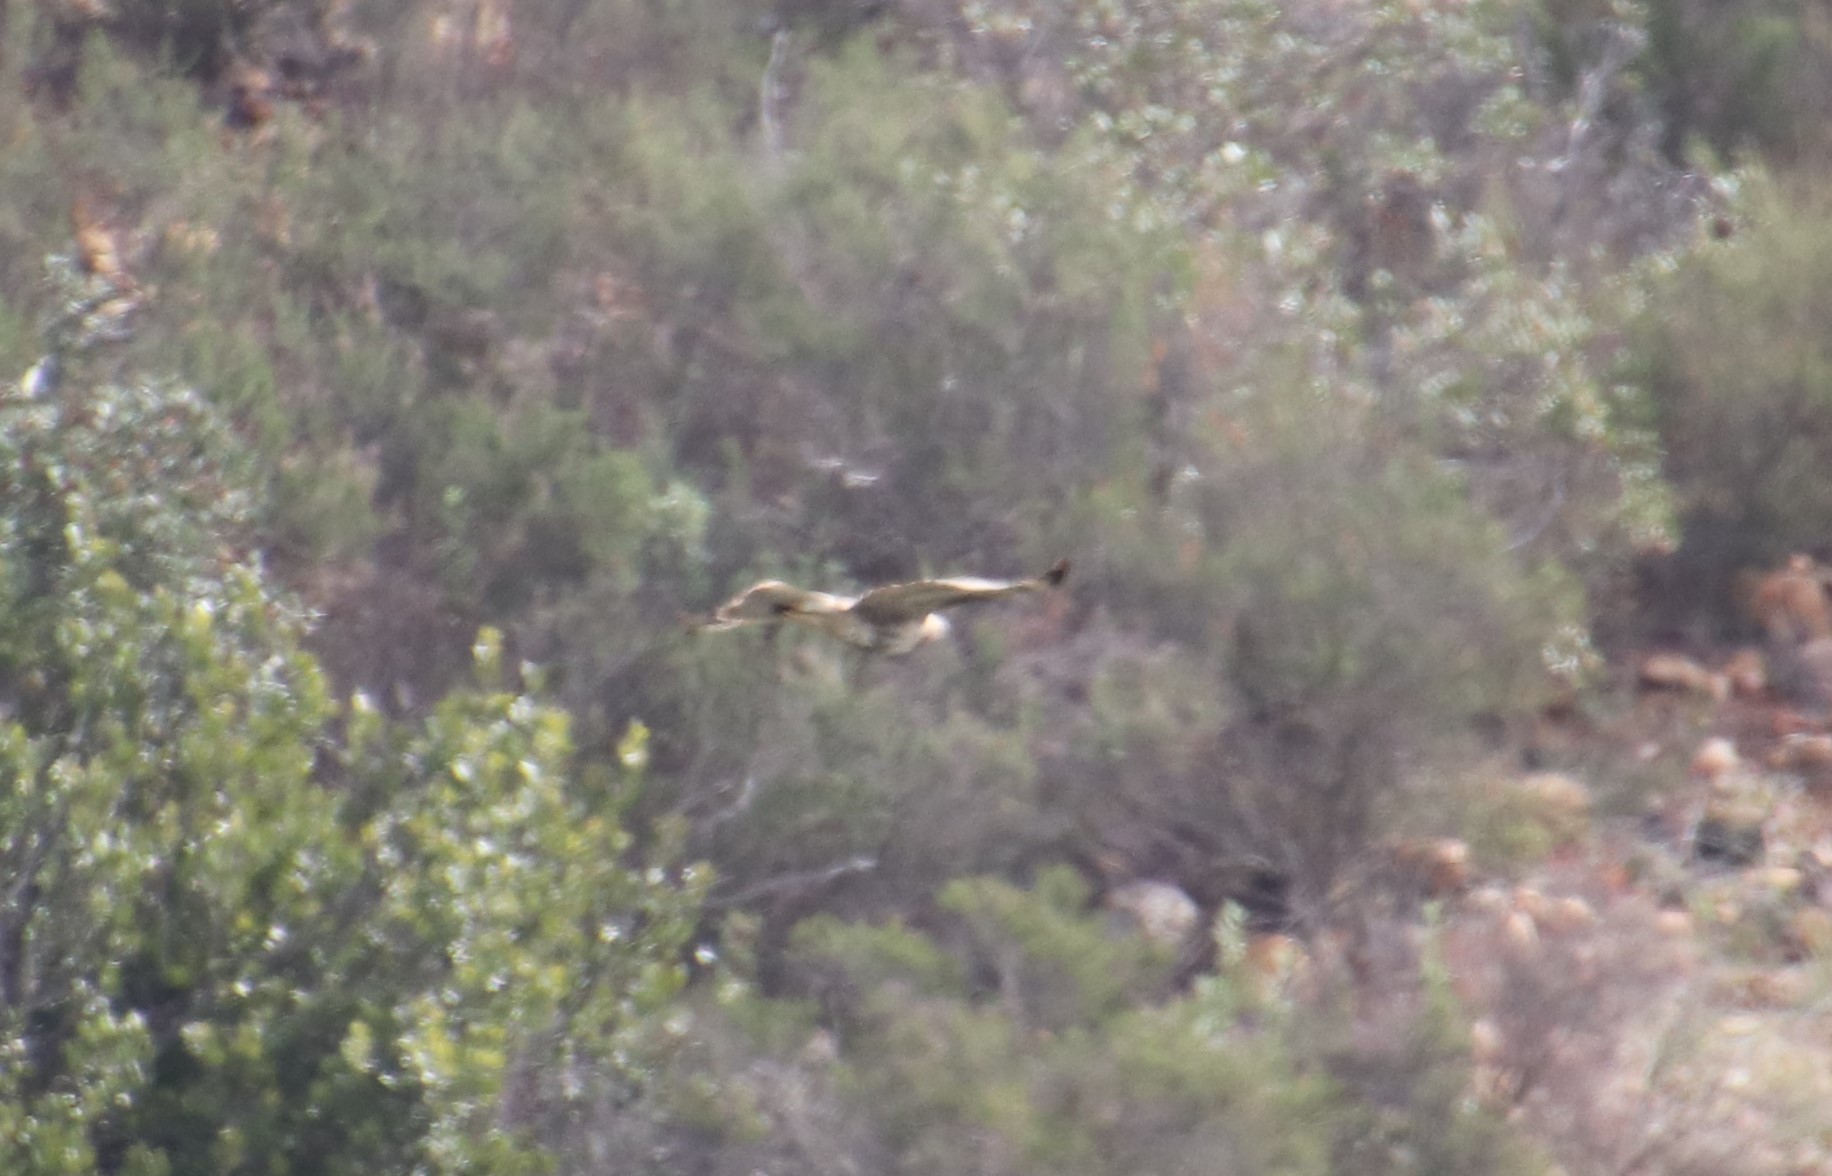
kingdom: Animalia
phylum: Chordata
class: Aves
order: Accipitriformes
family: Accipitridae
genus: Buteo
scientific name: Buteo jamaicensis
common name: Red-tailed hawk
